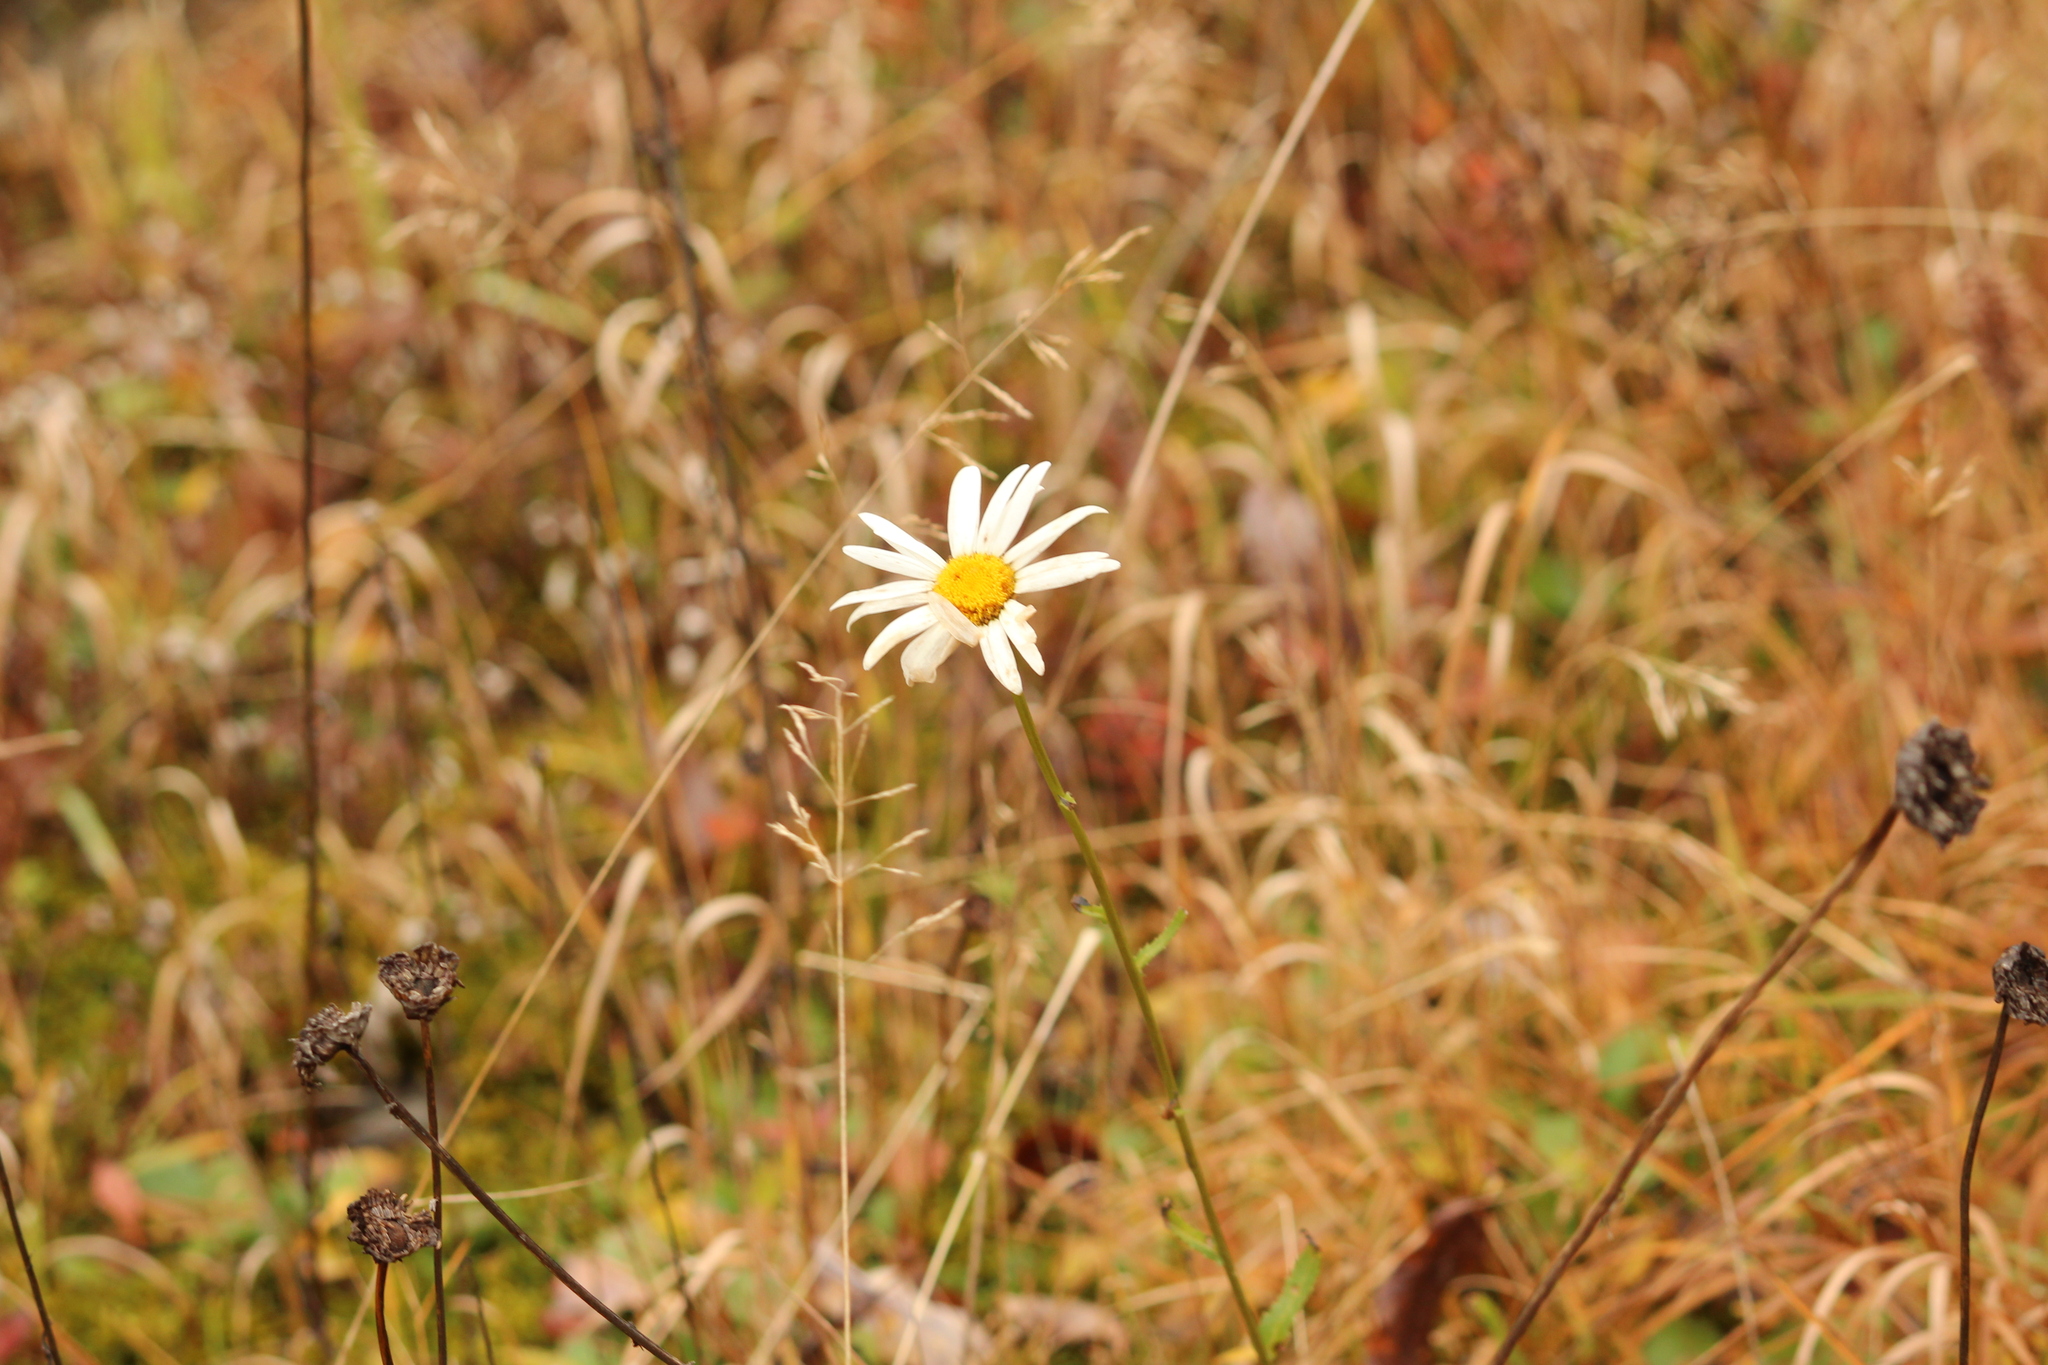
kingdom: Plantae
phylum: Tracheophyta
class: Magnoliopsida
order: Asterales
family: Asteraceae
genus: Leucanthemum
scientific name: Leucanthemum vulgare
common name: Oxeye daisy
